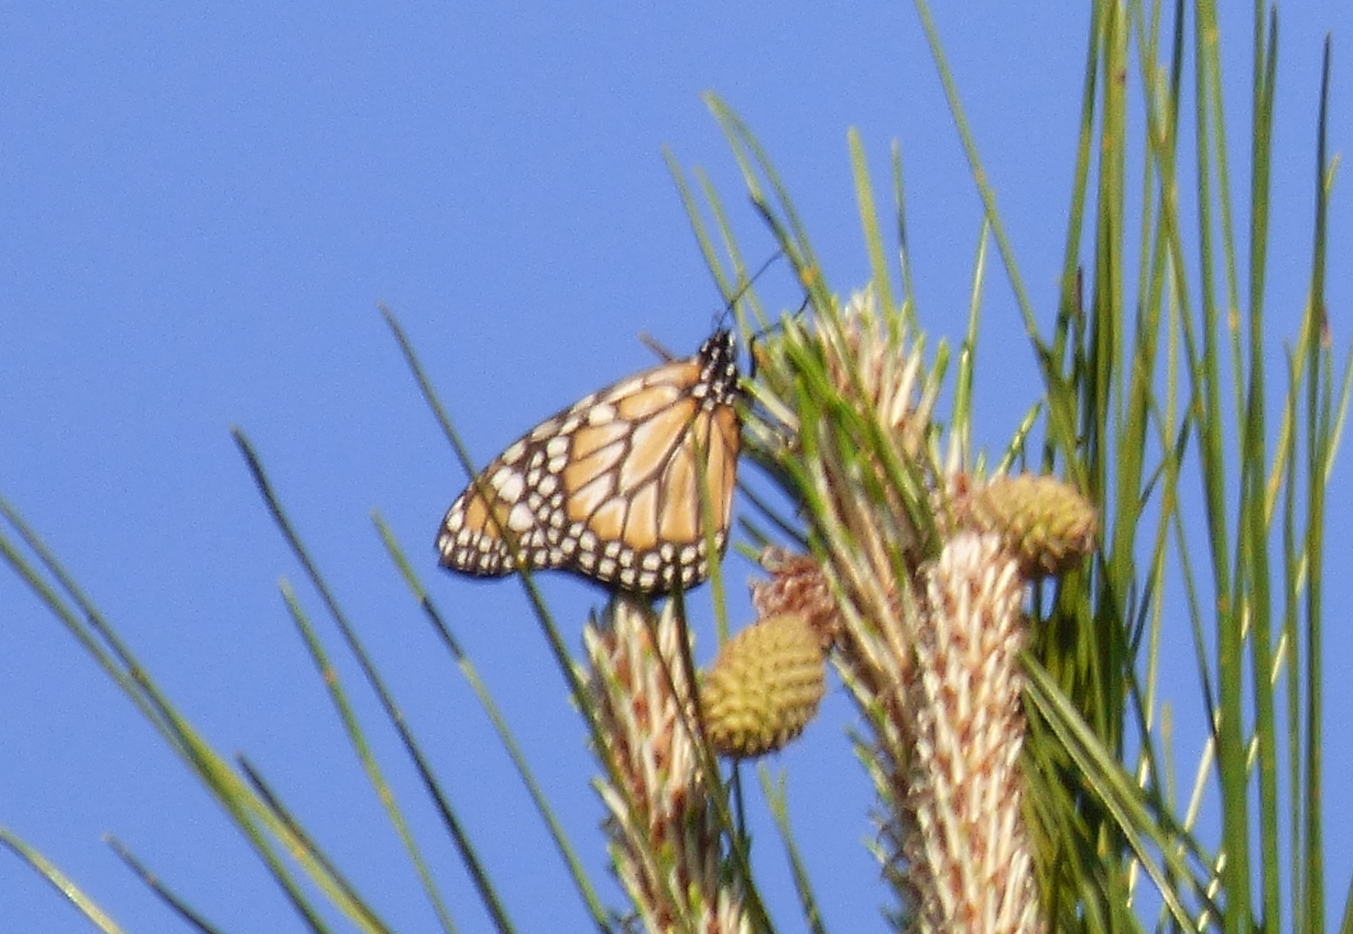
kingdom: Animalia
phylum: Arthropoda
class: Insecta
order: Lepidoptera
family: Nymphalidae
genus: Danaus
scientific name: Danaus erippus
